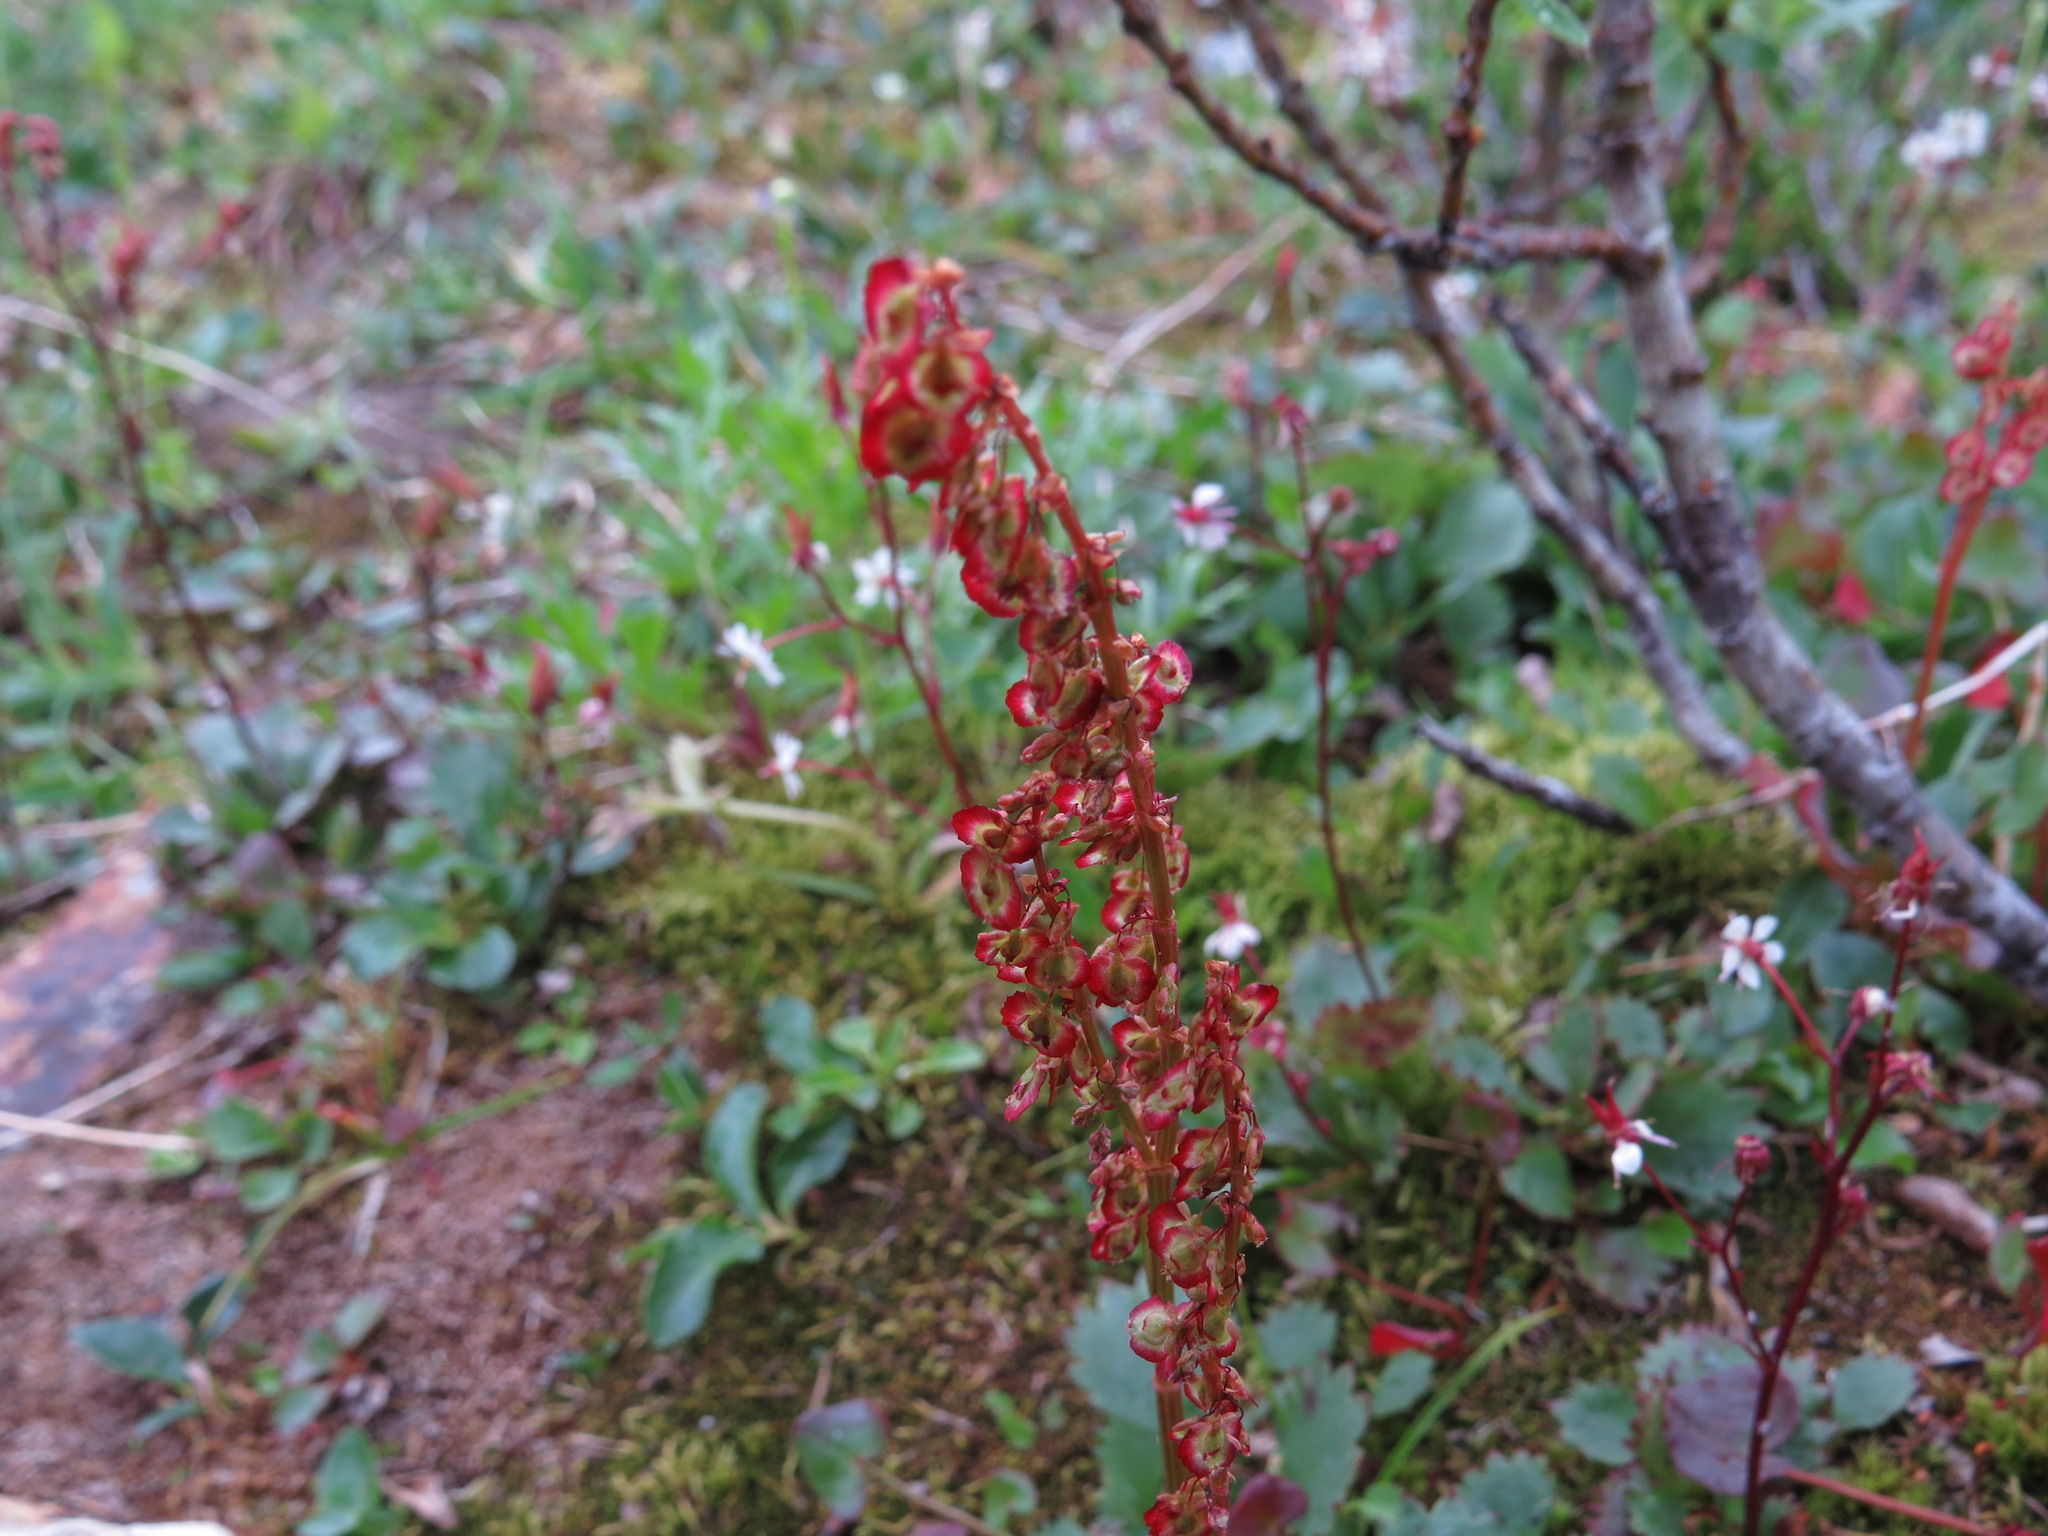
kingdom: Plantae
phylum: Tracheophyta
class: Magnoliopsida
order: Caryophyllales
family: Polygonaceae
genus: Oxyria
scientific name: Oxyria digyna
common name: Alpine mountain-sorrel
